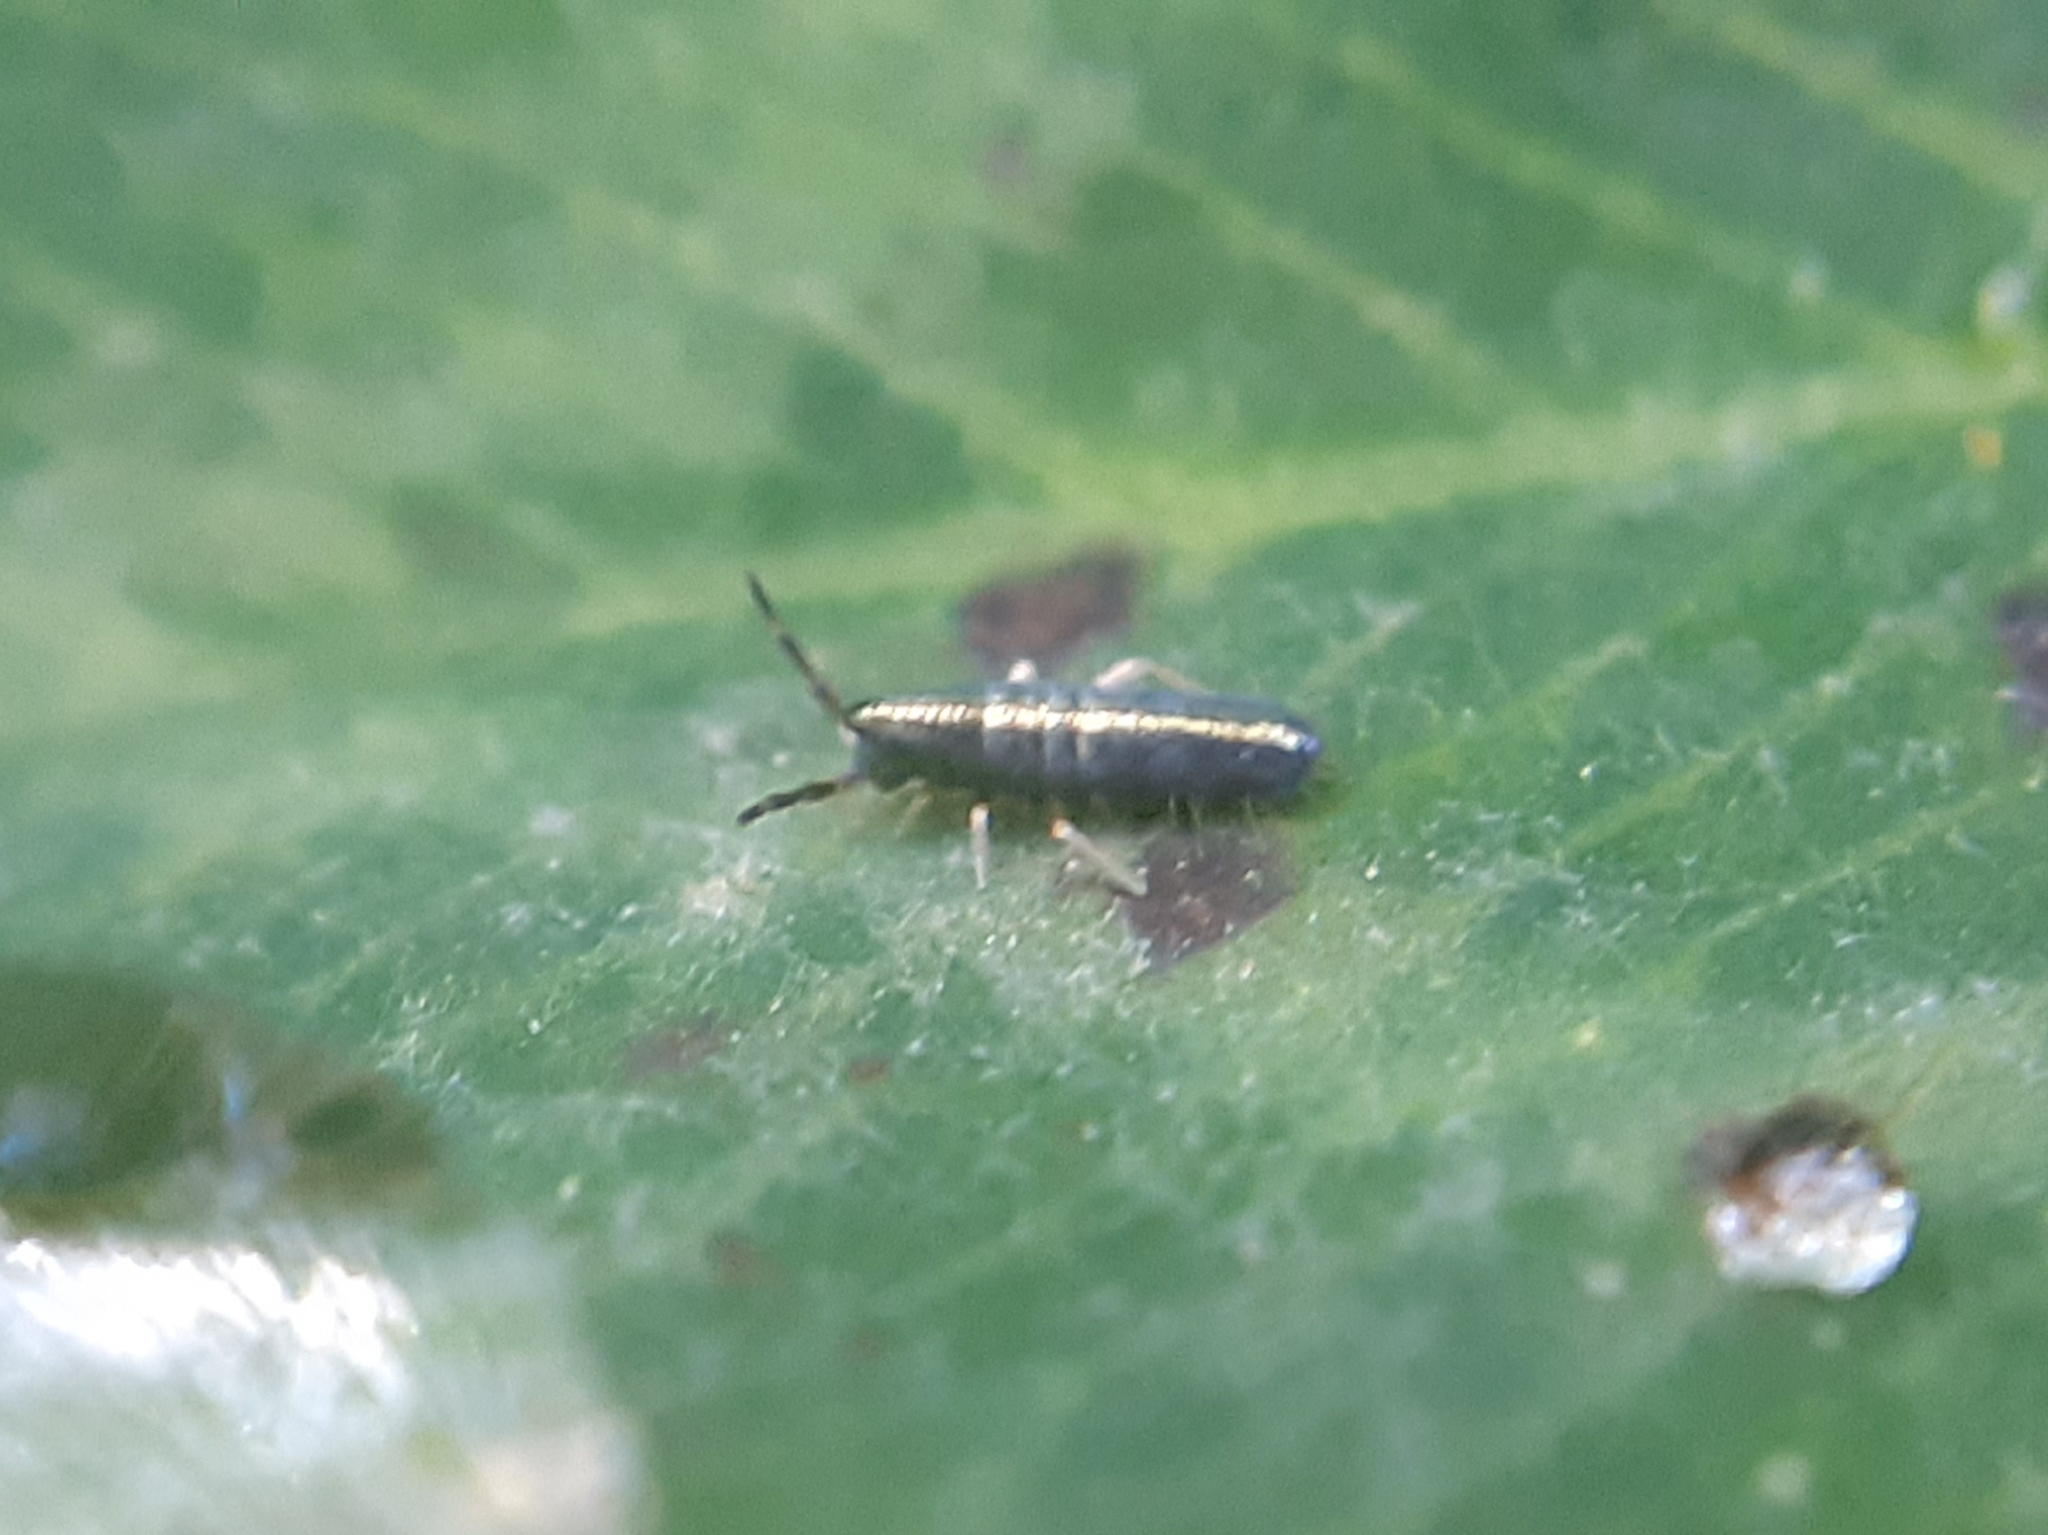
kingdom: Animalia
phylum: Arthropoda
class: Collembola
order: Entomobryomorpha
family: Entomobryidae
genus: Lepidocyrtus
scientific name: Lepidocyrtus paradoxus
